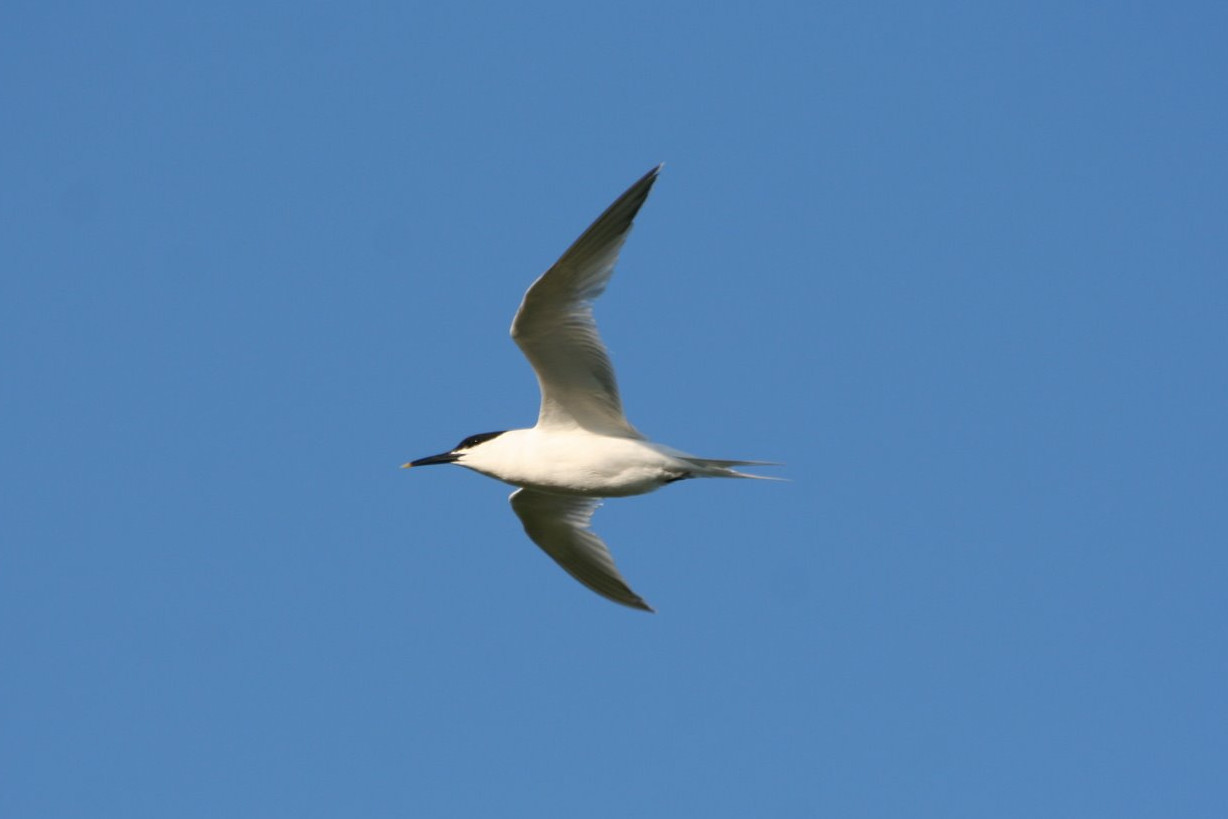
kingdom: Animalia
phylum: Chordata
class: Aves
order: Charadriiformes
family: Laridae
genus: Thalasseus
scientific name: Thalasseus sandvicensis
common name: Sandwich tern
